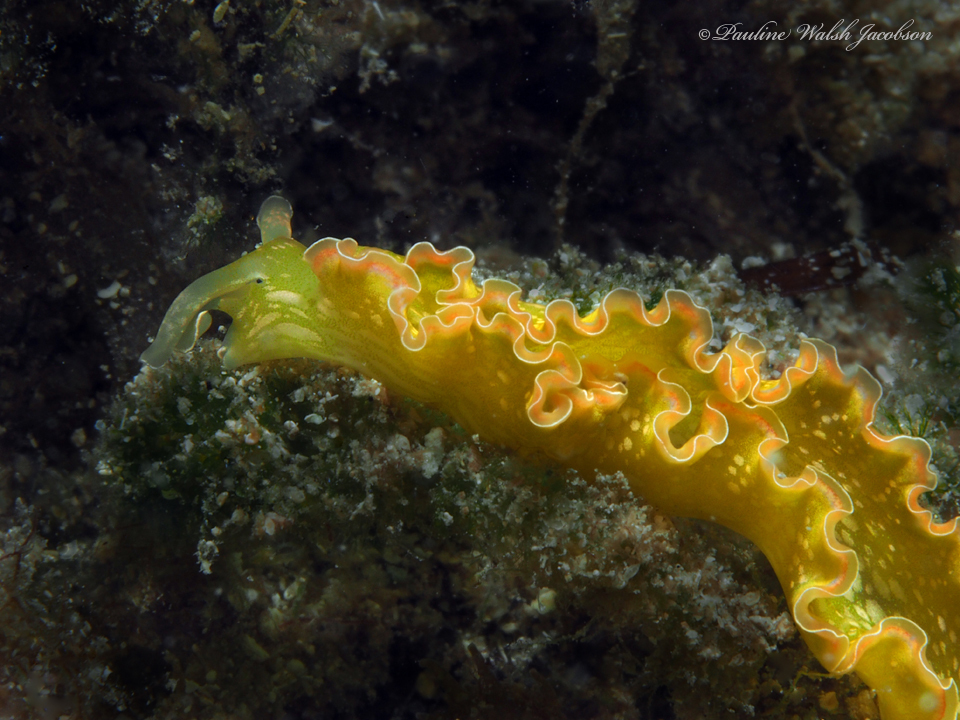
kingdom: Animalia
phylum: Mollusca
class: Gastropoda
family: Plakobranchidae
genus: Elysia
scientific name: Elysia crispata
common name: Lettuce slug
